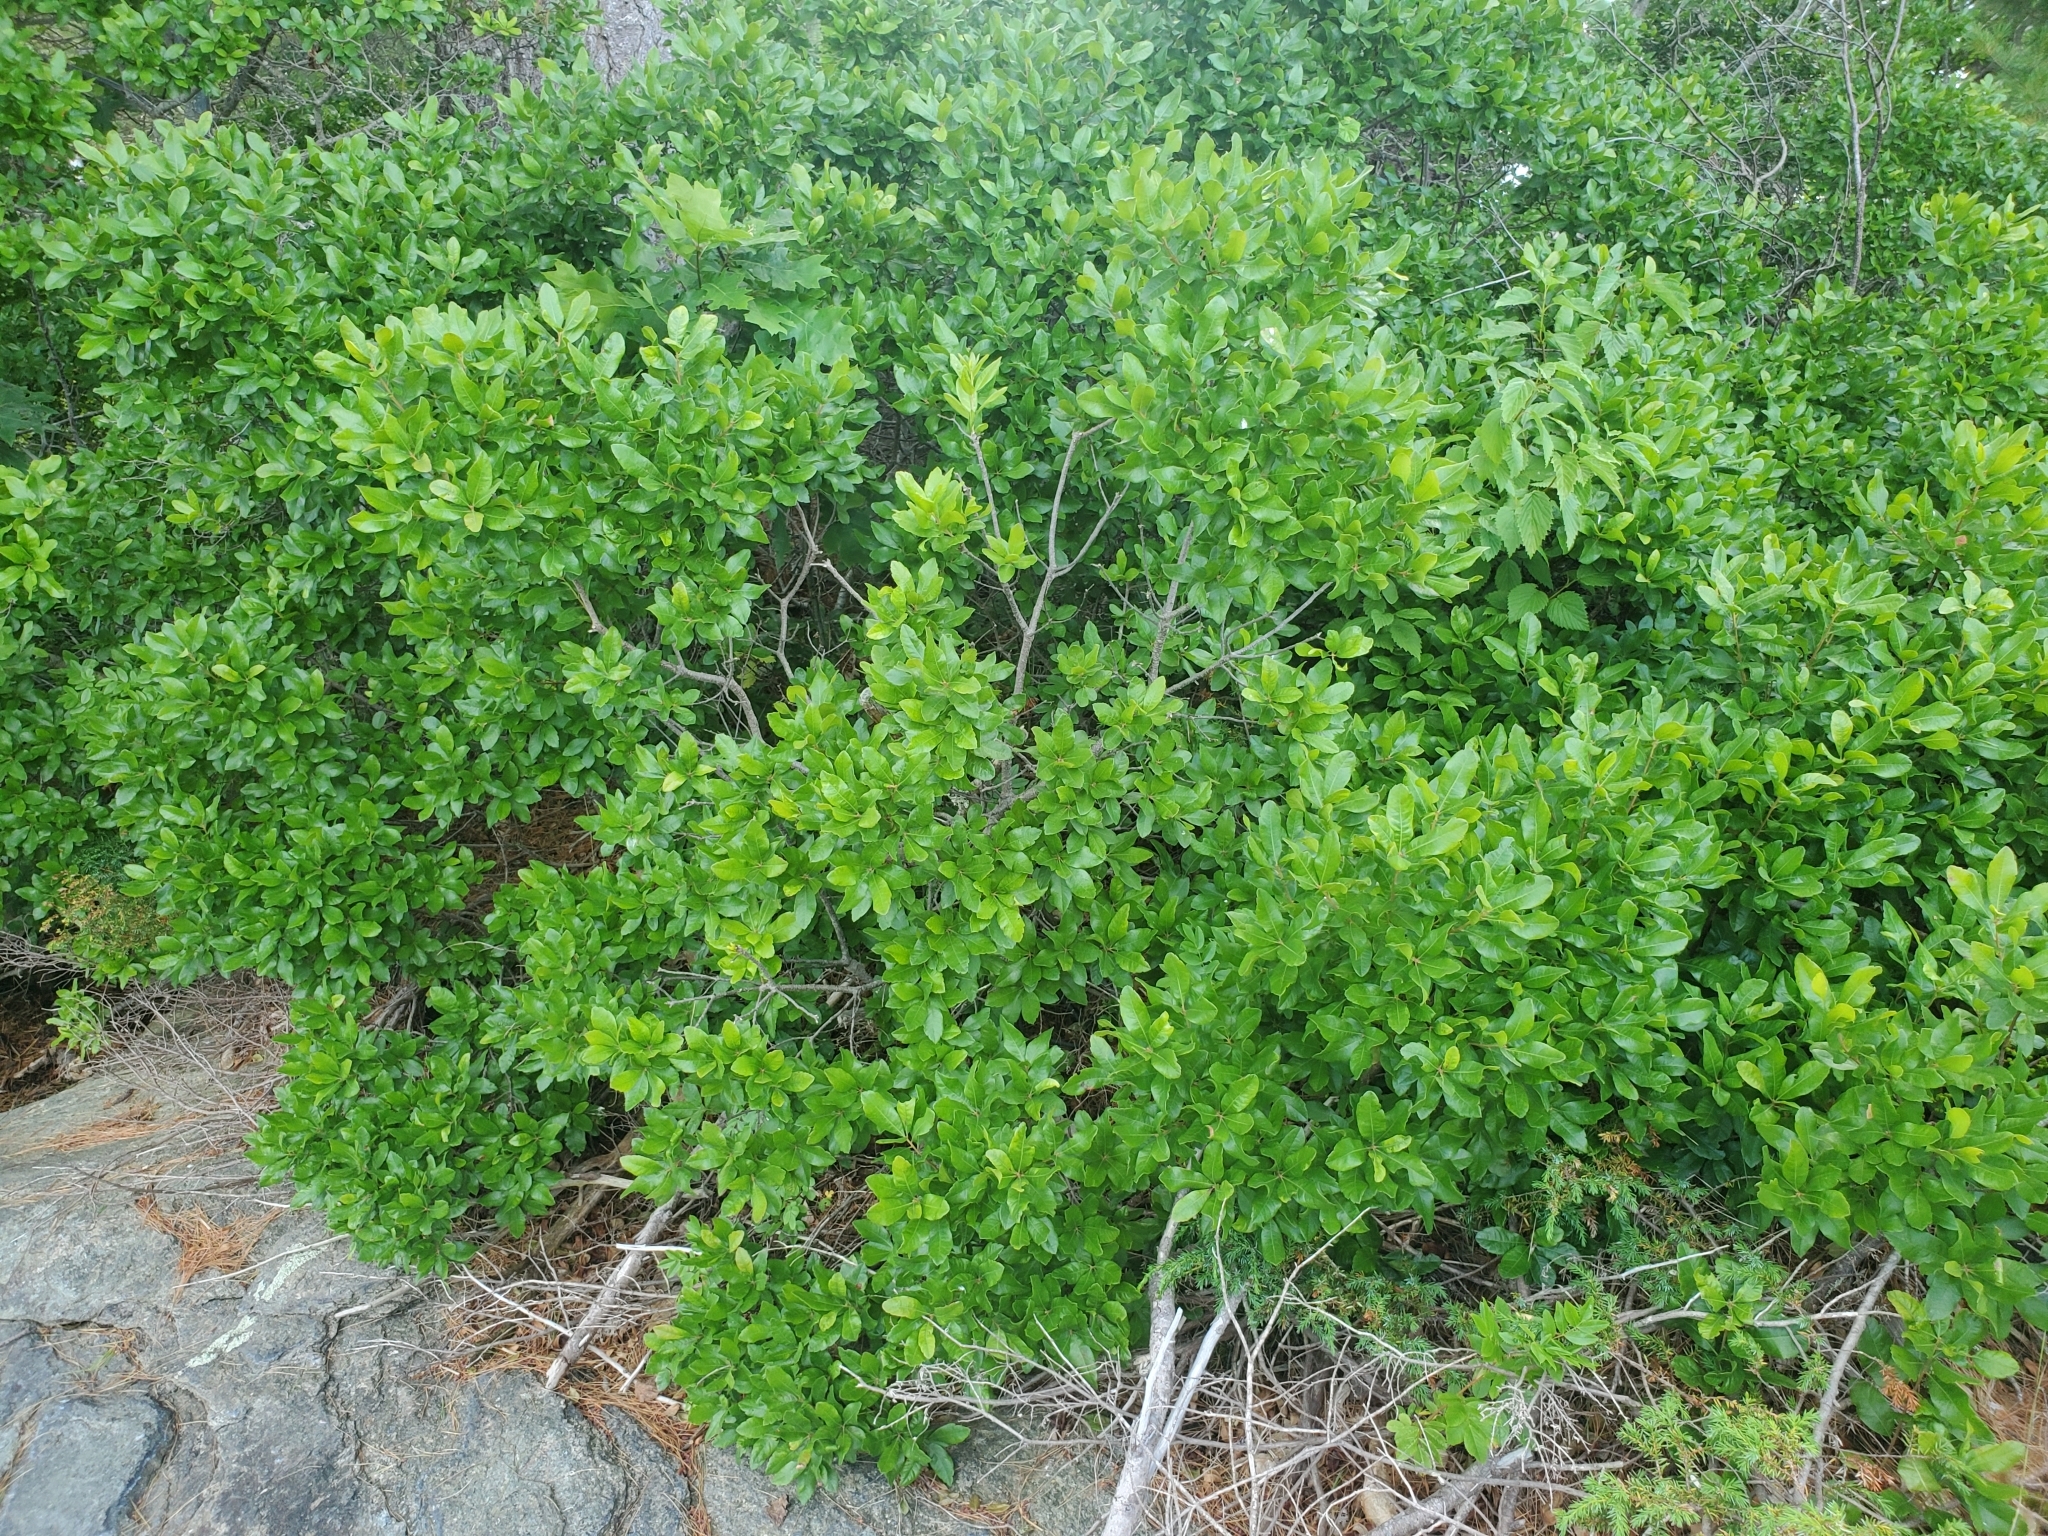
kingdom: Plantae
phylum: Tracheophyta
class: Magnoliopsida
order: Fagales
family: Myricaceae
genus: Morella
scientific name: Morella pensylvanica
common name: Northern bayberry
